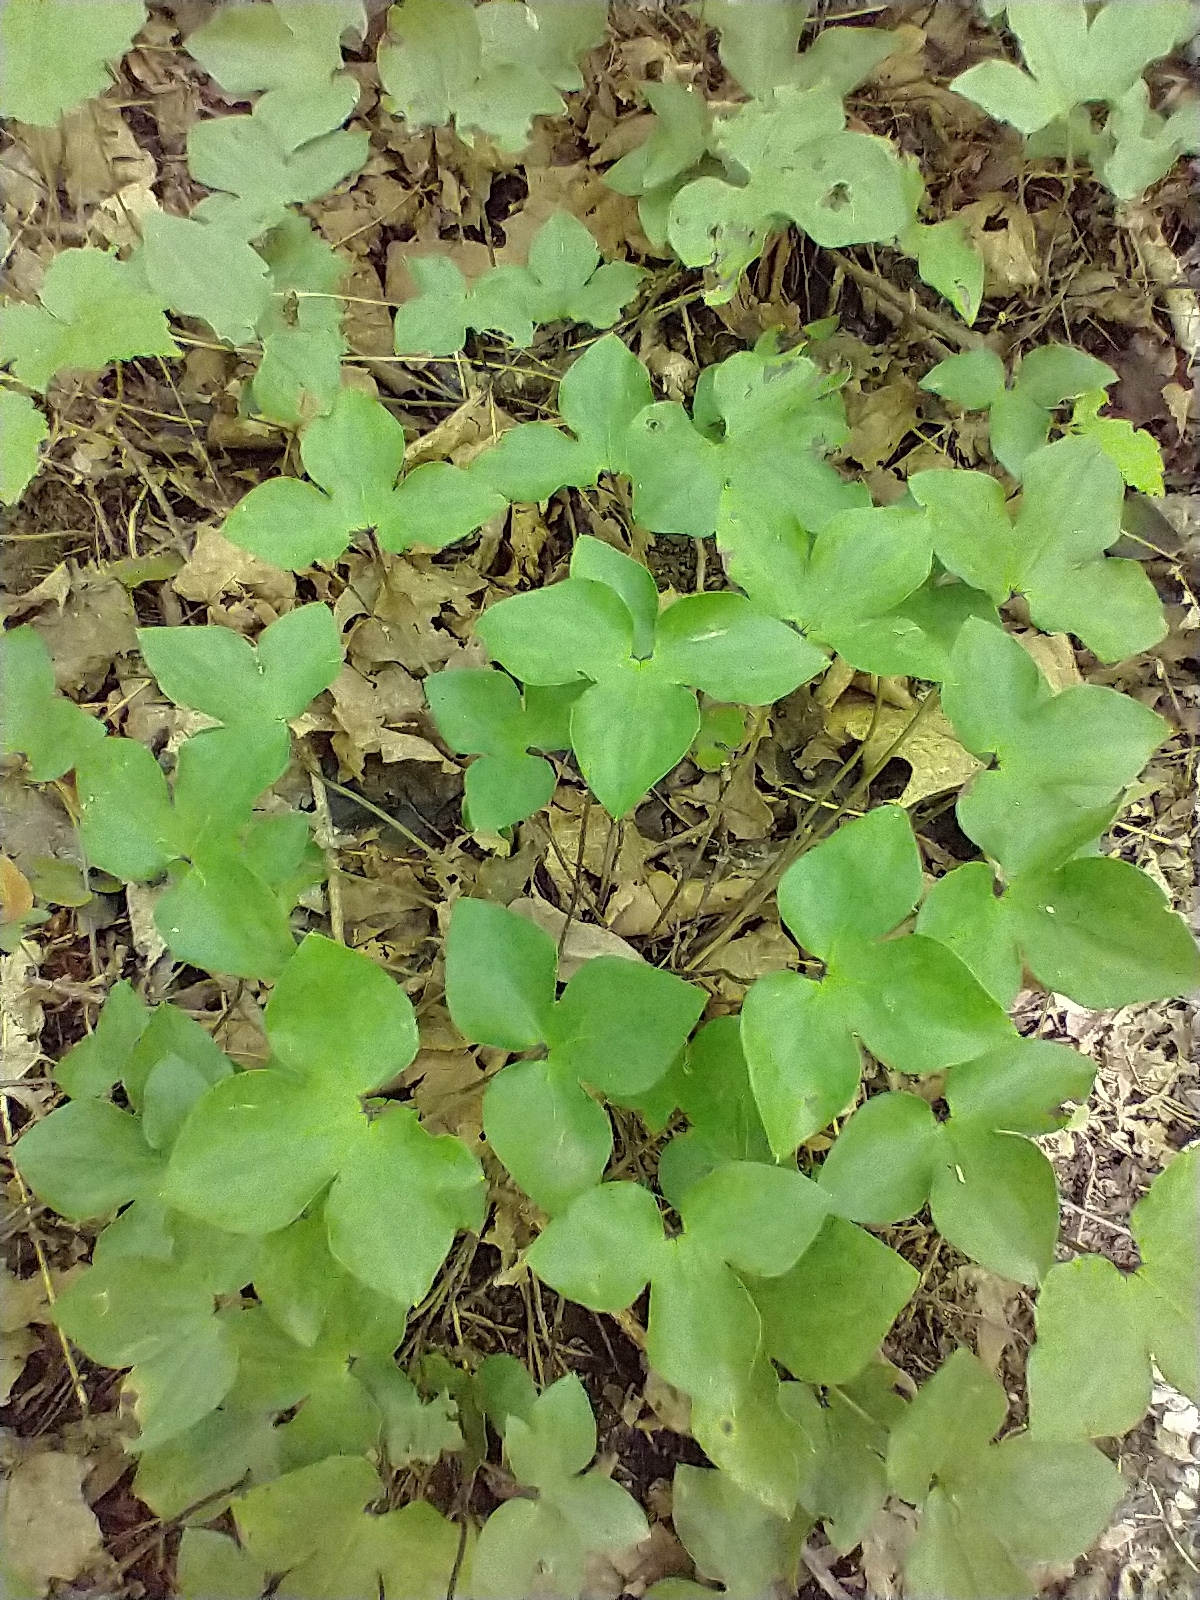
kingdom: Plantae
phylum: Tracheophyta
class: Magnoliopsida
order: Ranunculales
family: Ranunculaceae
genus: Hepatica
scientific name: Hepatica acutiloba
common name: Sharp-lobed hepatica
